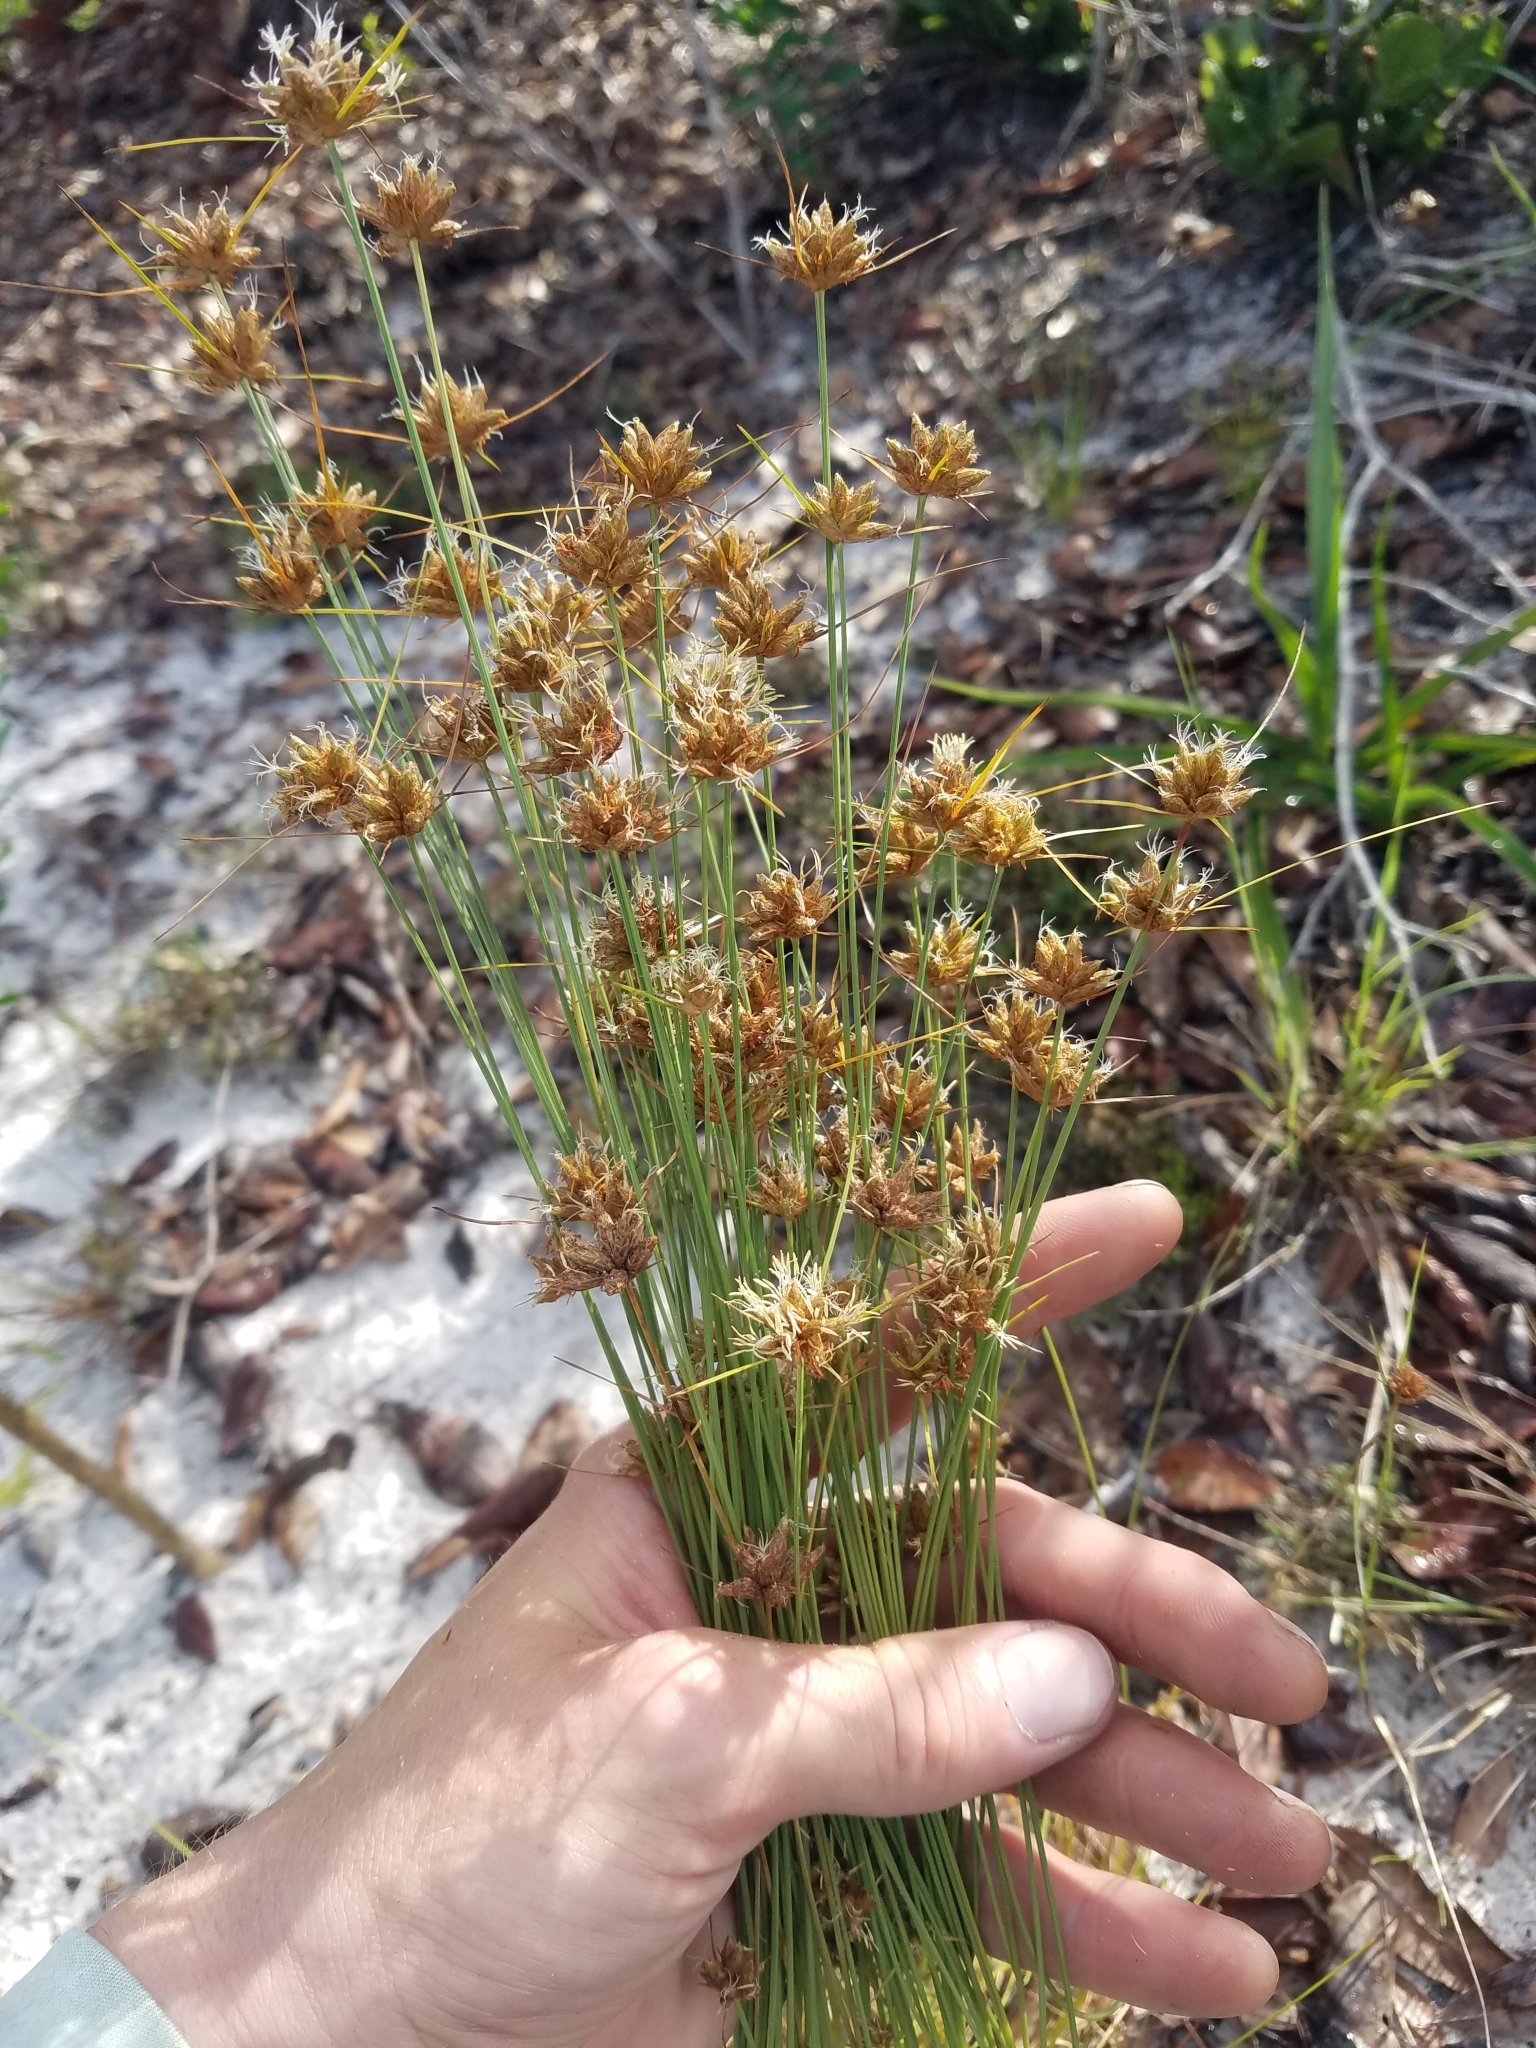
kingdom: Plantae
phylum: Tracheophyta
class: Liliopsida
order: Poales
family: Cyperaceae
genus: Bulbostylis
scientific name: Bulbostylis warei
